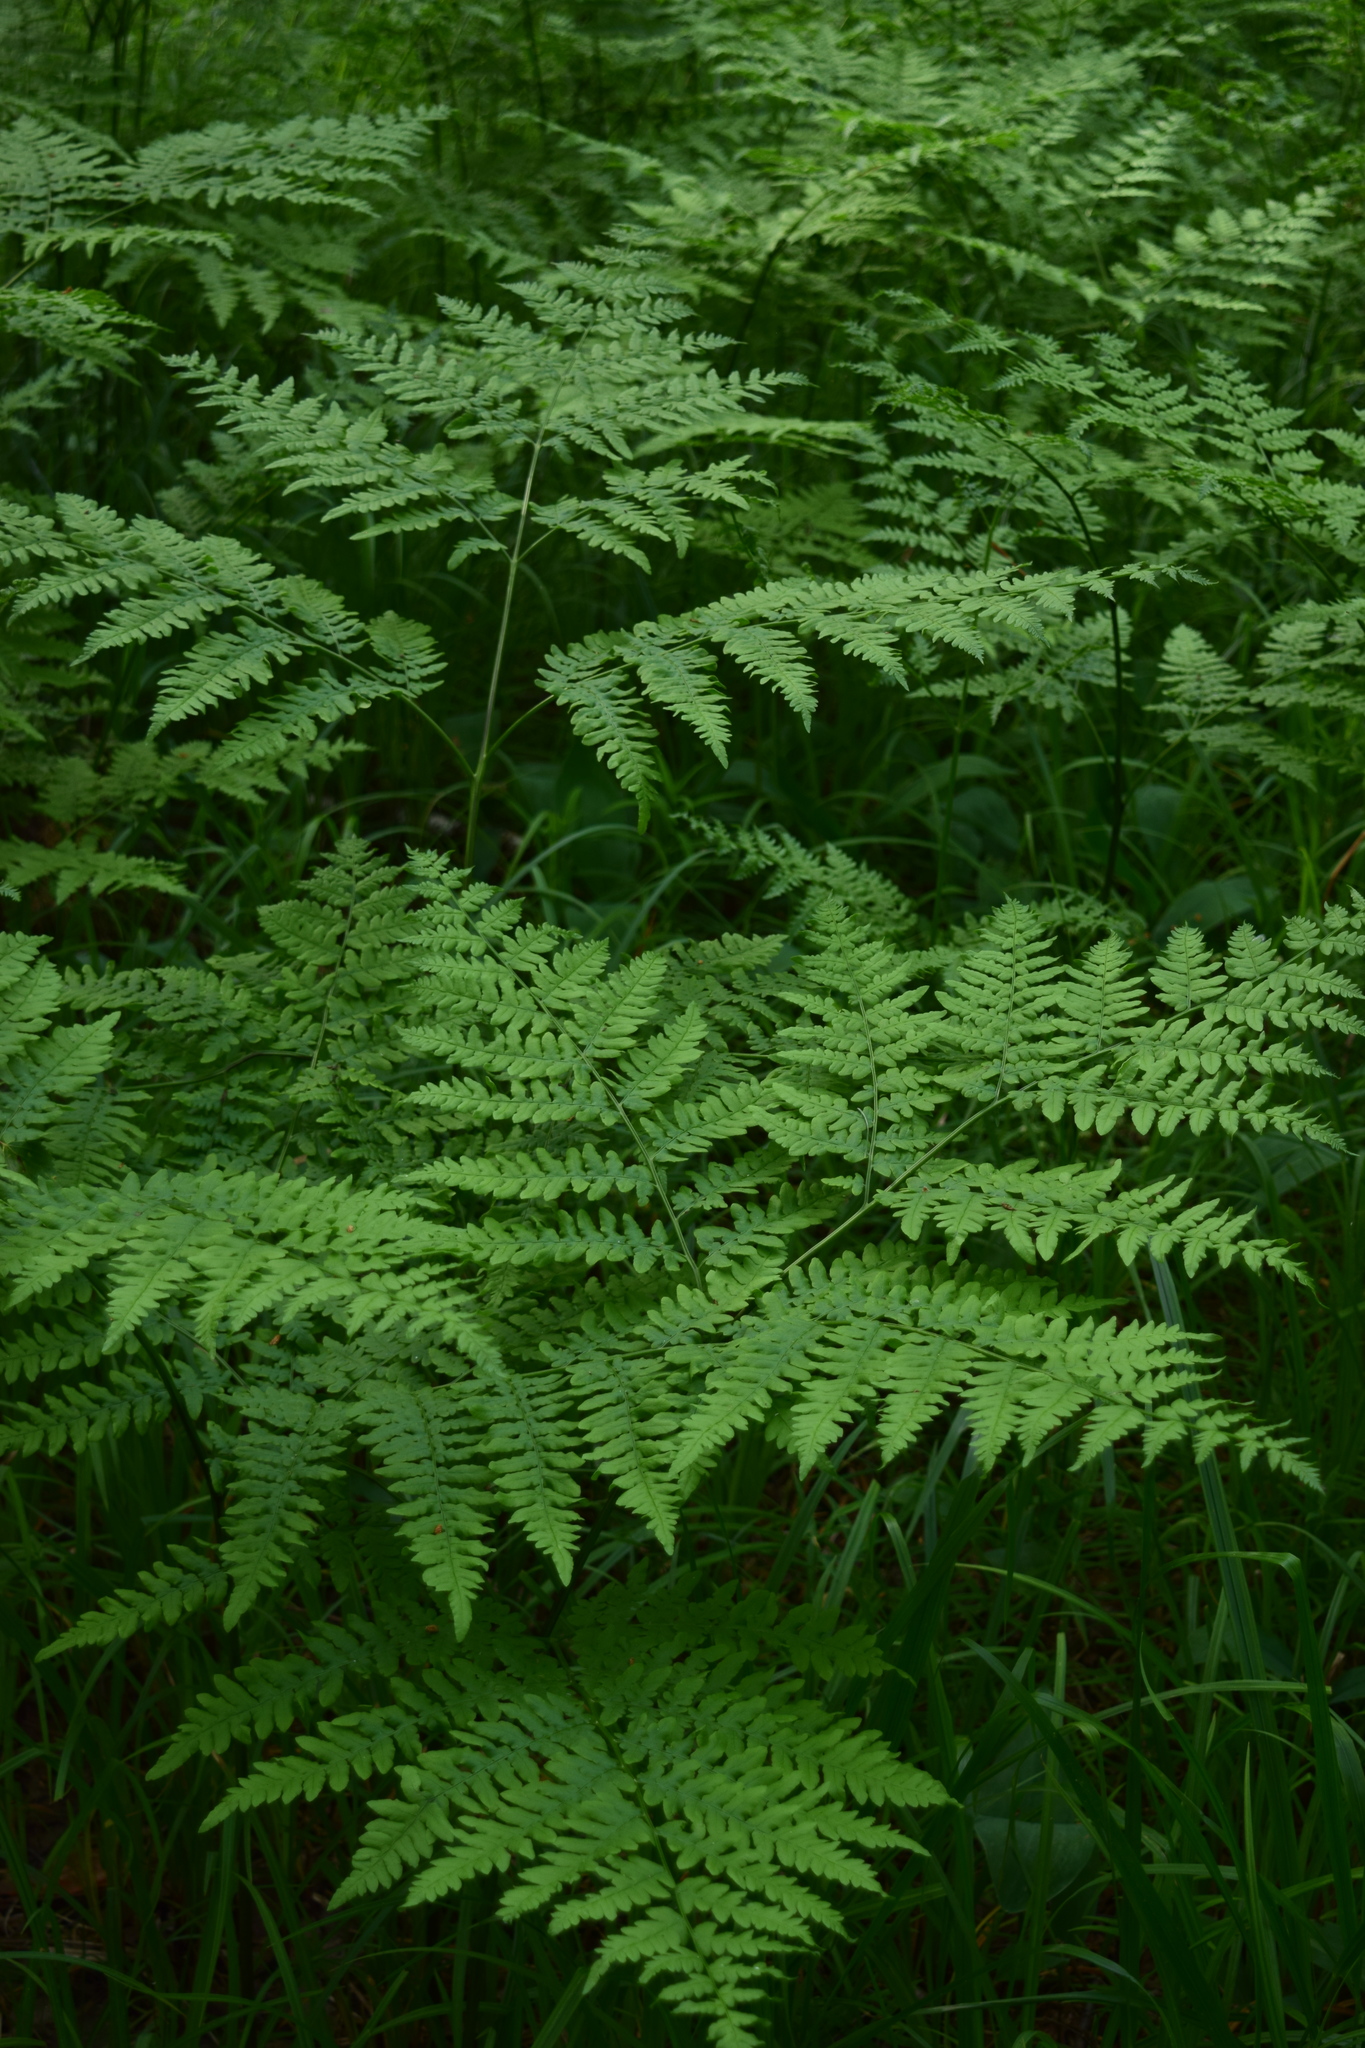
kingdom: Plantae
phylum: Tracheophyta
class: Polypodiopsida
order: Polypodiales
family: Dennstaedtiaceae
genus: Pteridium
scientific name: Pteridium aquilinum
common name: Bracken
